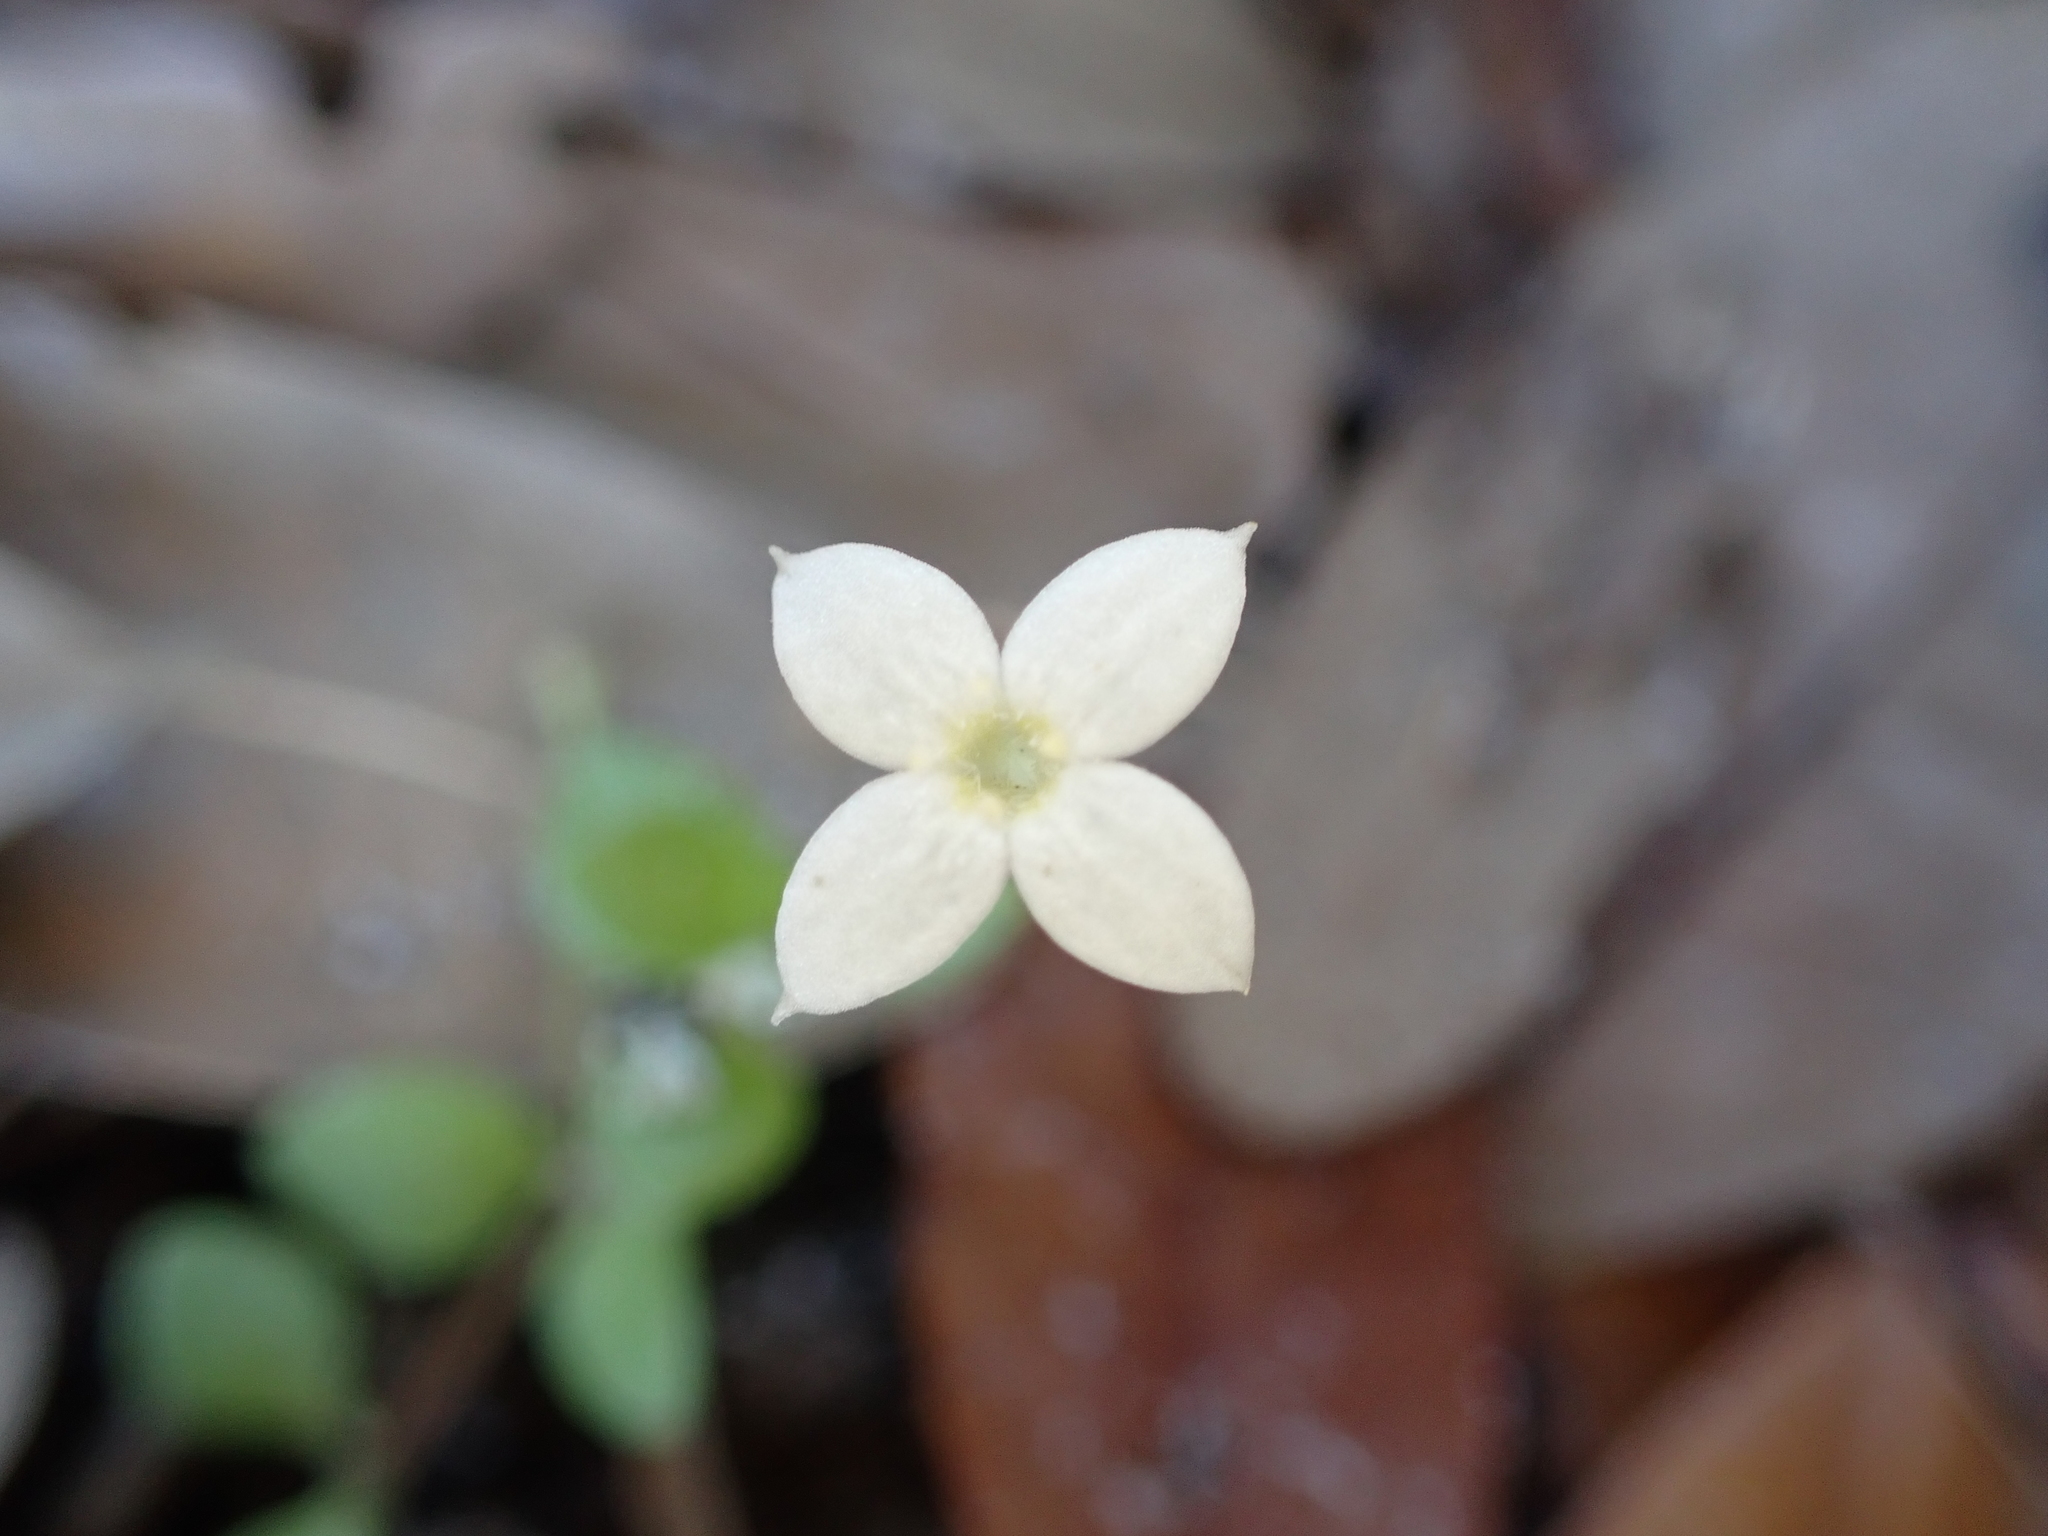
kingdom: Plantae
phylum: Tracheophyta
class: Magnoliopsida
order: Gentianales
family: Rubiaceae
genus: Houstonia
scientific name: Houstonia procumbens
